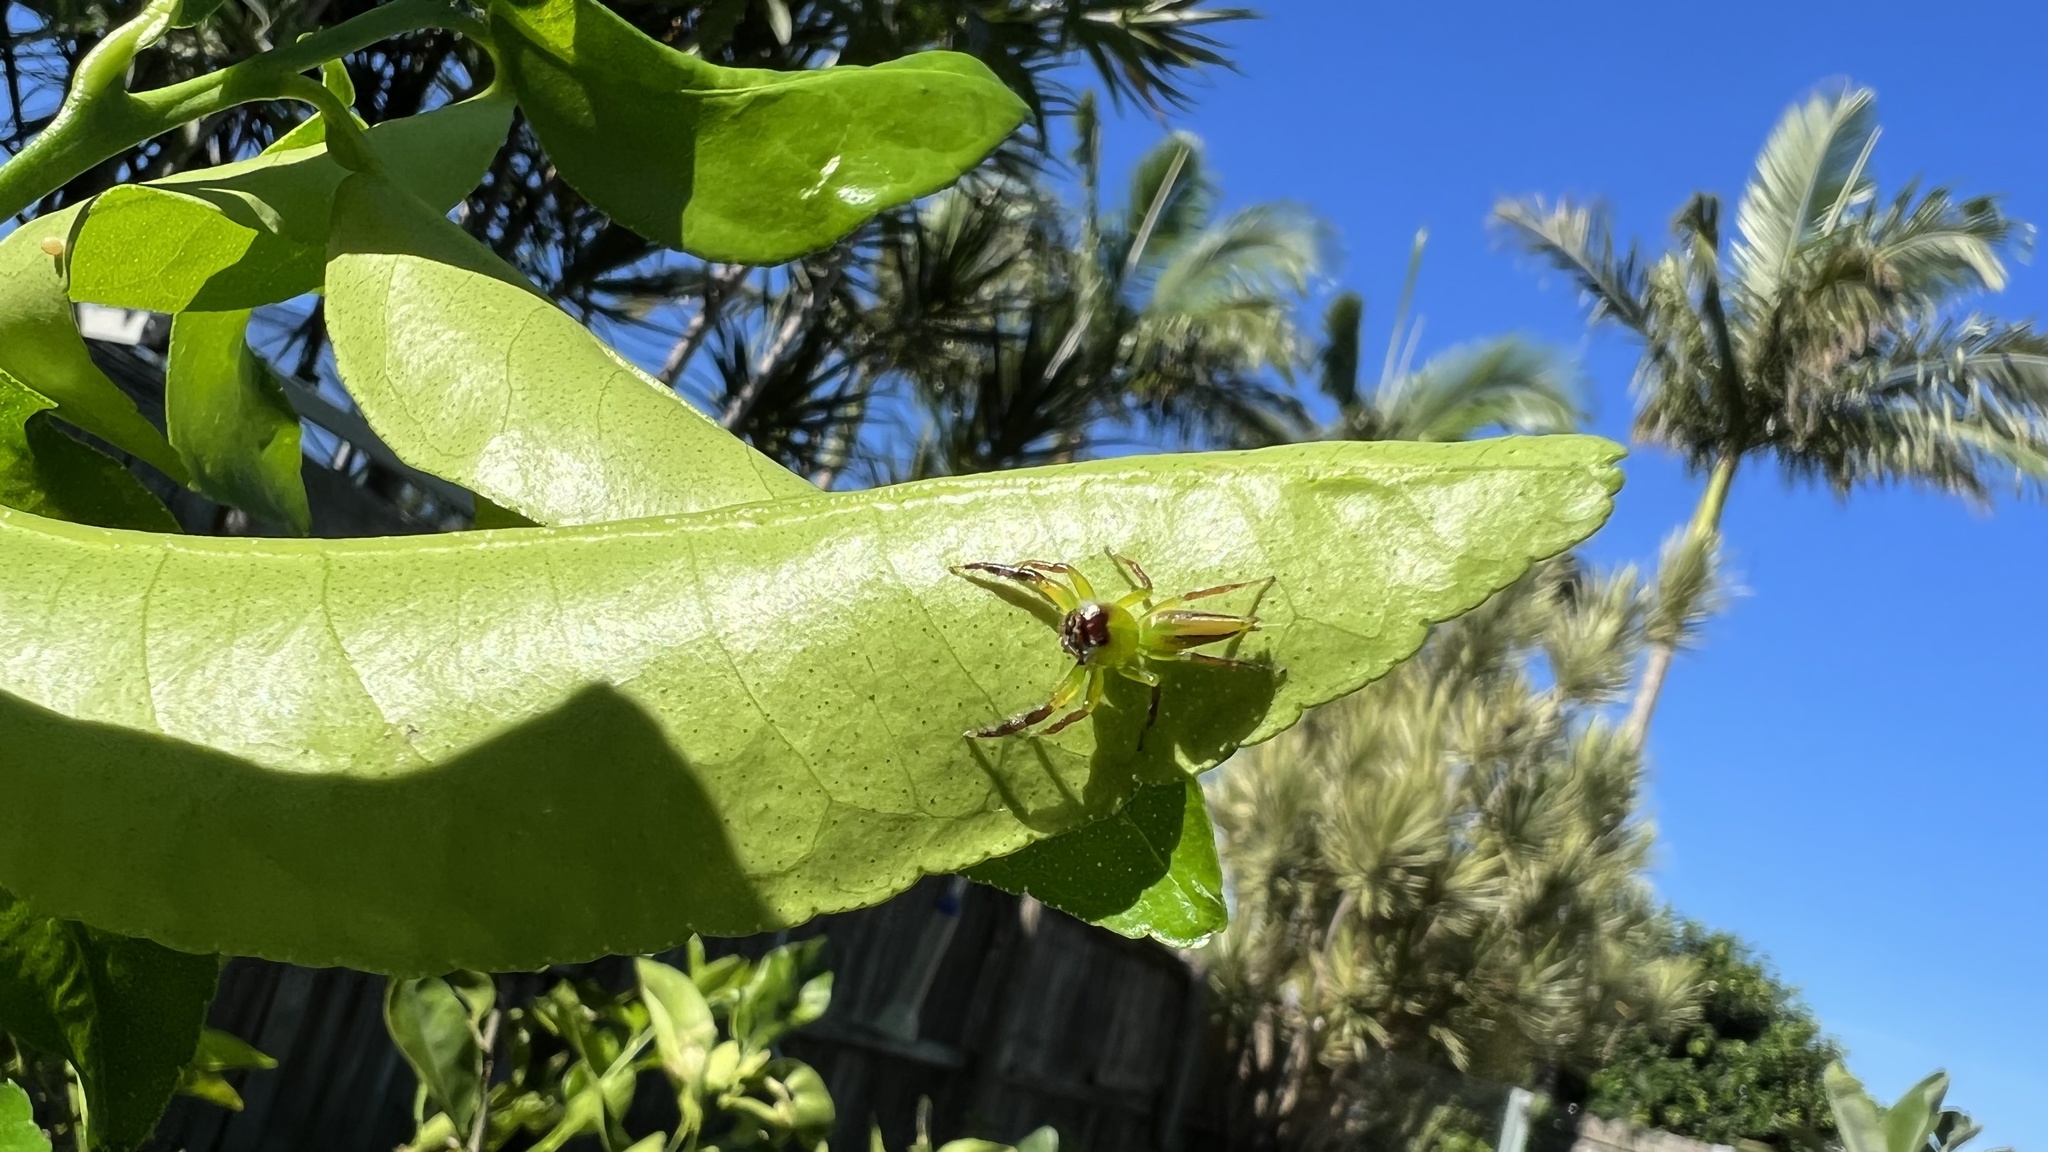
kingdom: Animalia
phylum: Arthropoda
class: Arachnida
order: Araneae
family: Salticidae
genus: Mopsus
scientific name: Mopsus mormon
